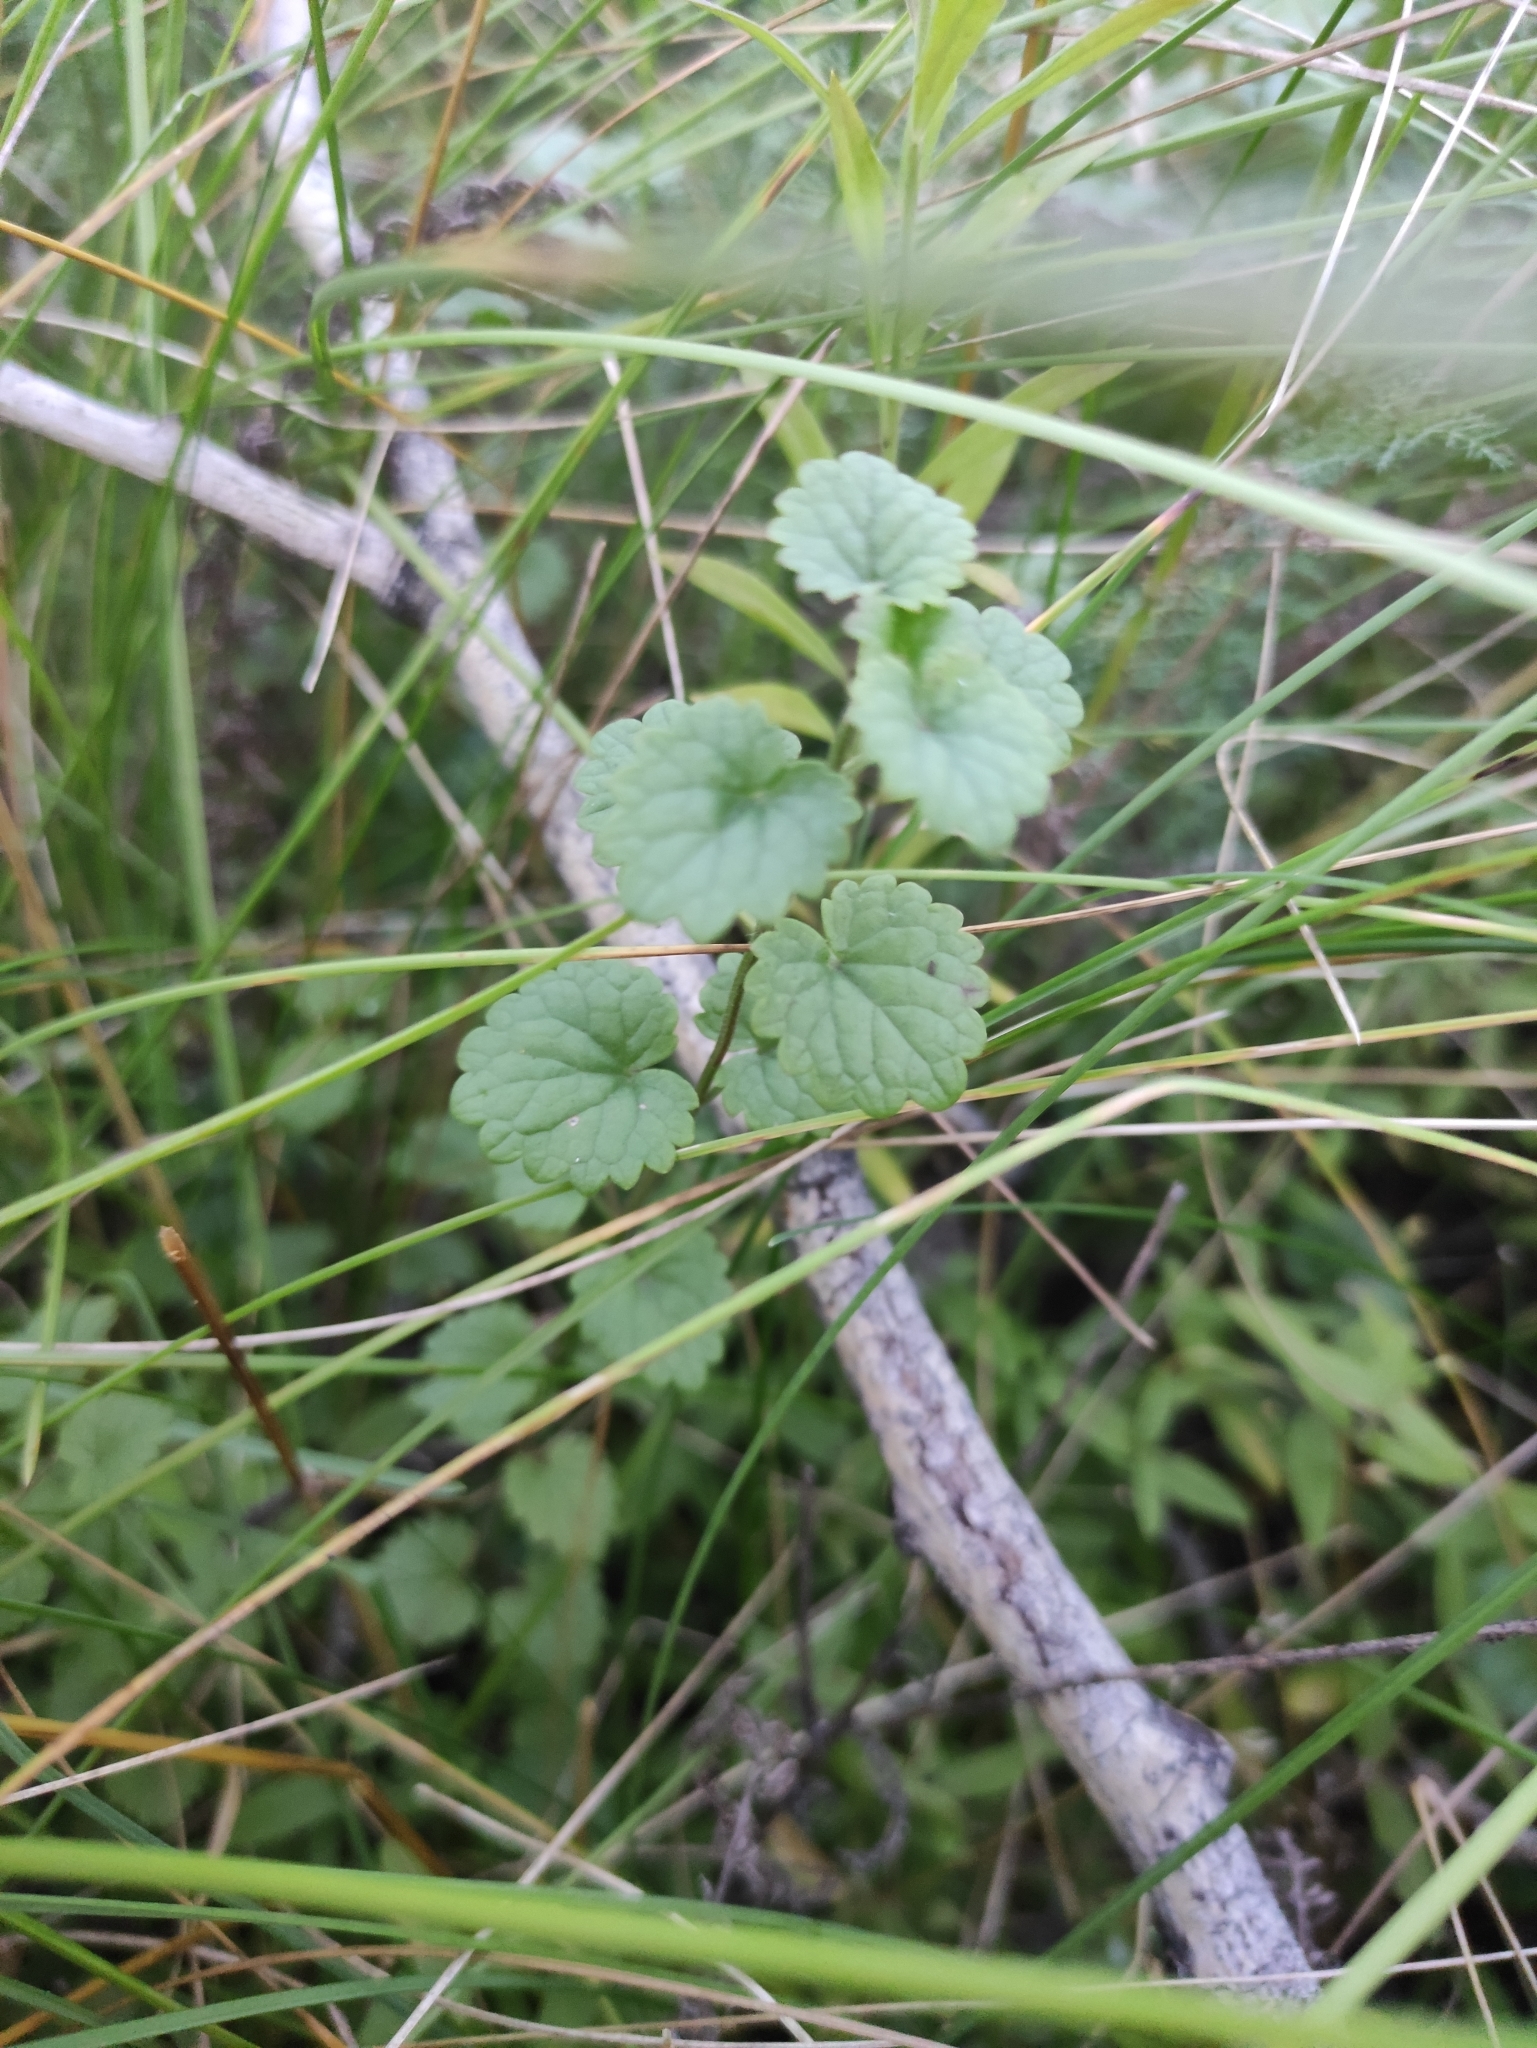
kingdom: Plantae
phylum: Tracheophyta
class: Magnoliopsida
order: Lamiales
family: Lamiaceae
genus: Glechoma
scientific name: Glechoma hederacea
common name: Ground ivy
